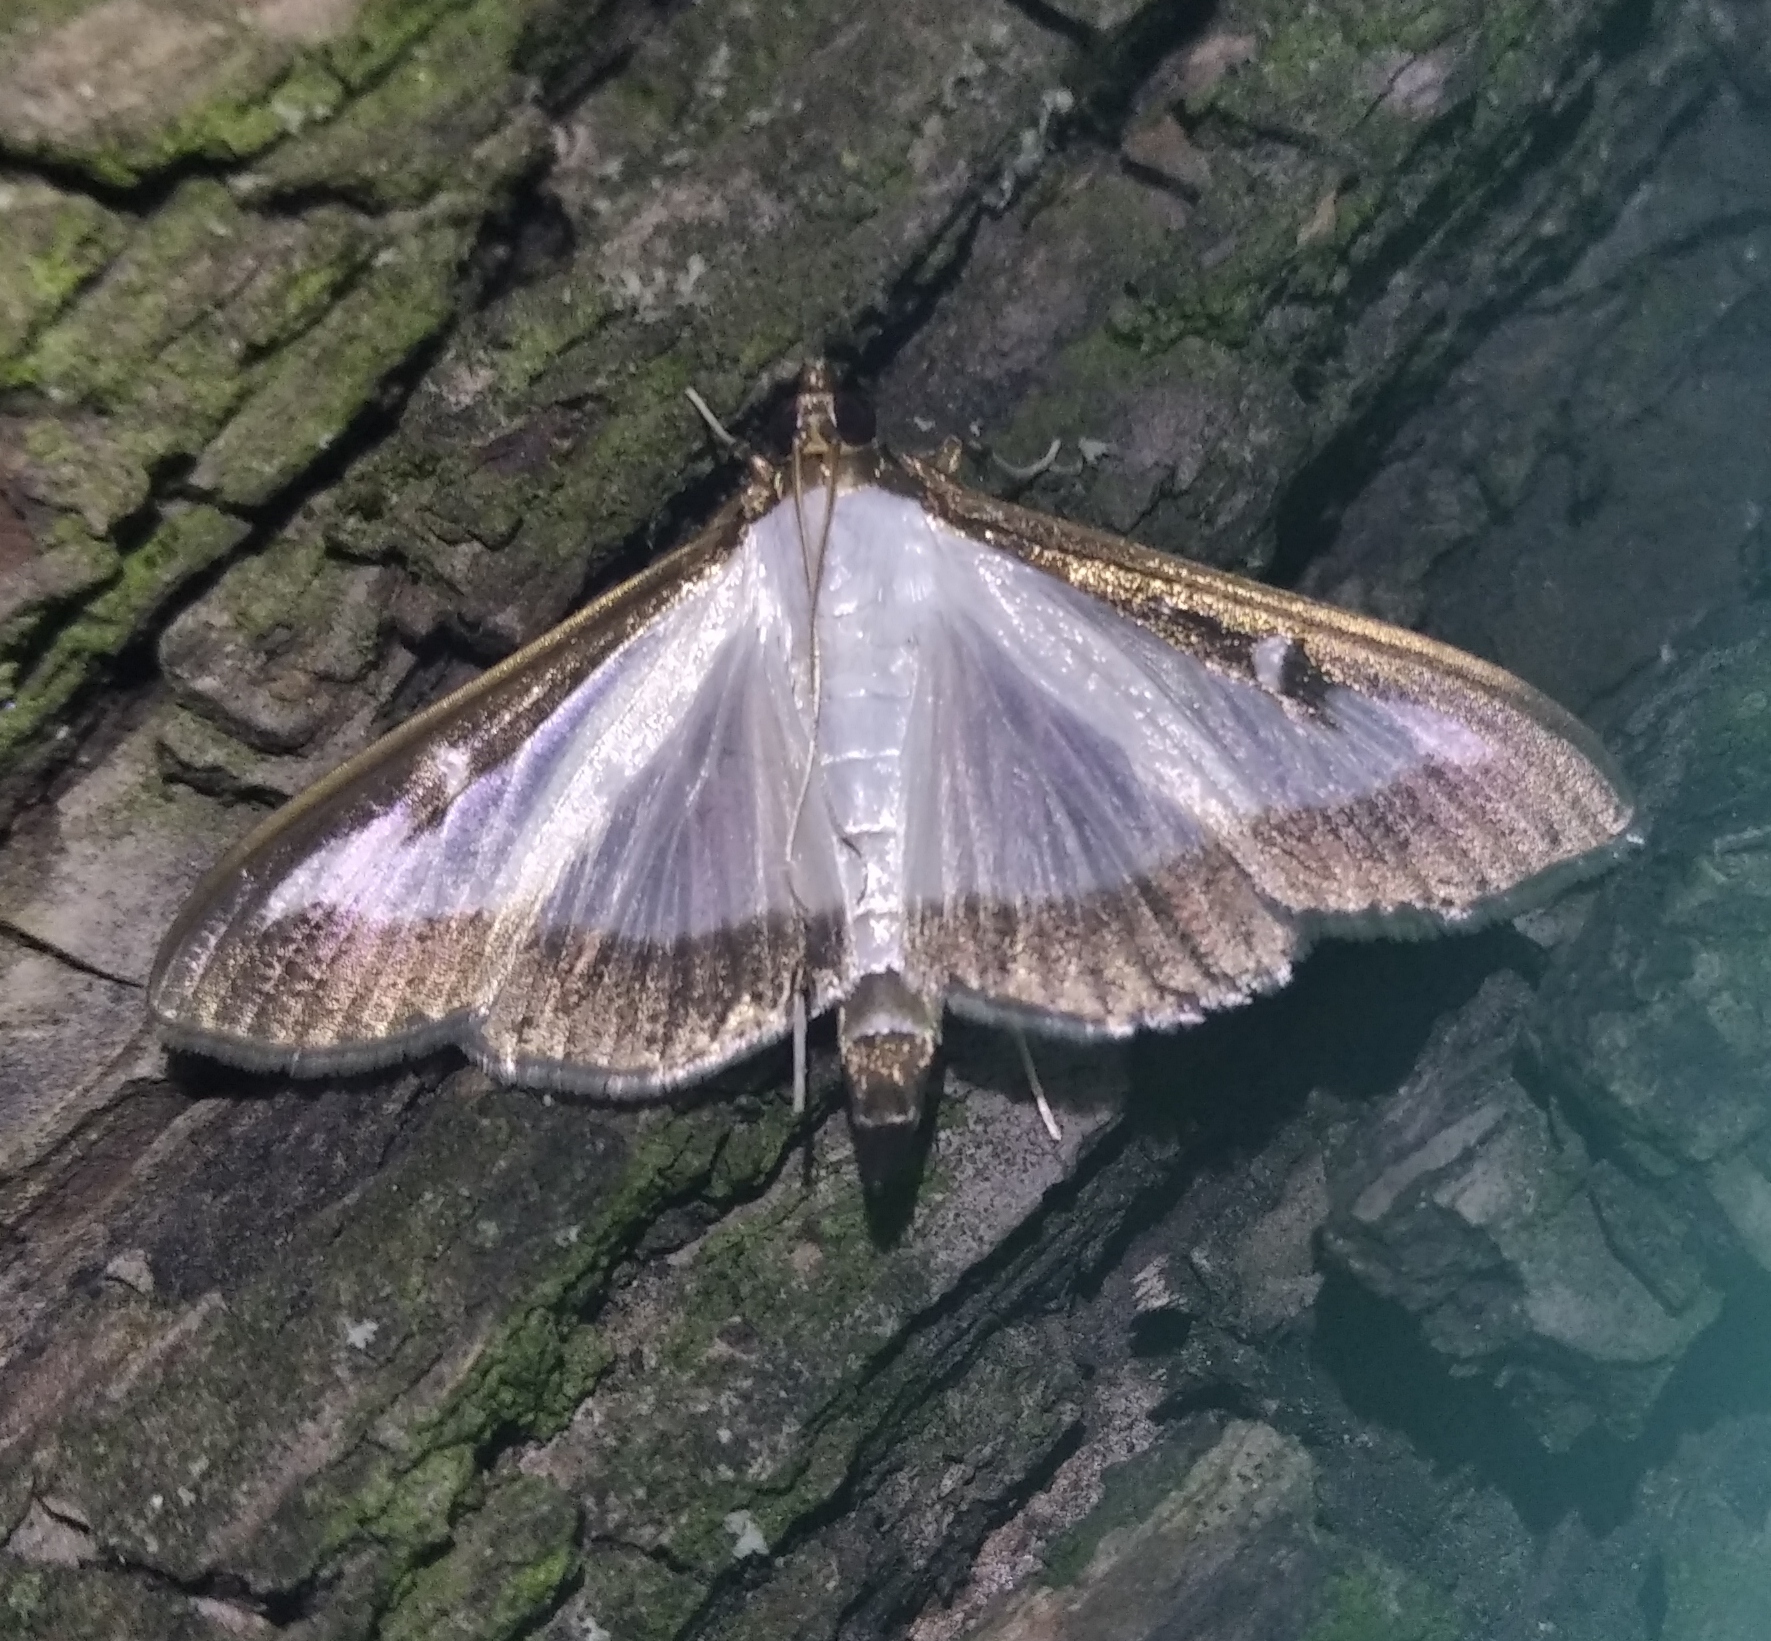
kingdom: Animalia
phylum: Arthropoda
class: Insecta
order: Lepidoptera
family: Crambidae
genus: Cydalima
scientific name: Cydalima perspectalis
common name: Box tree moth
